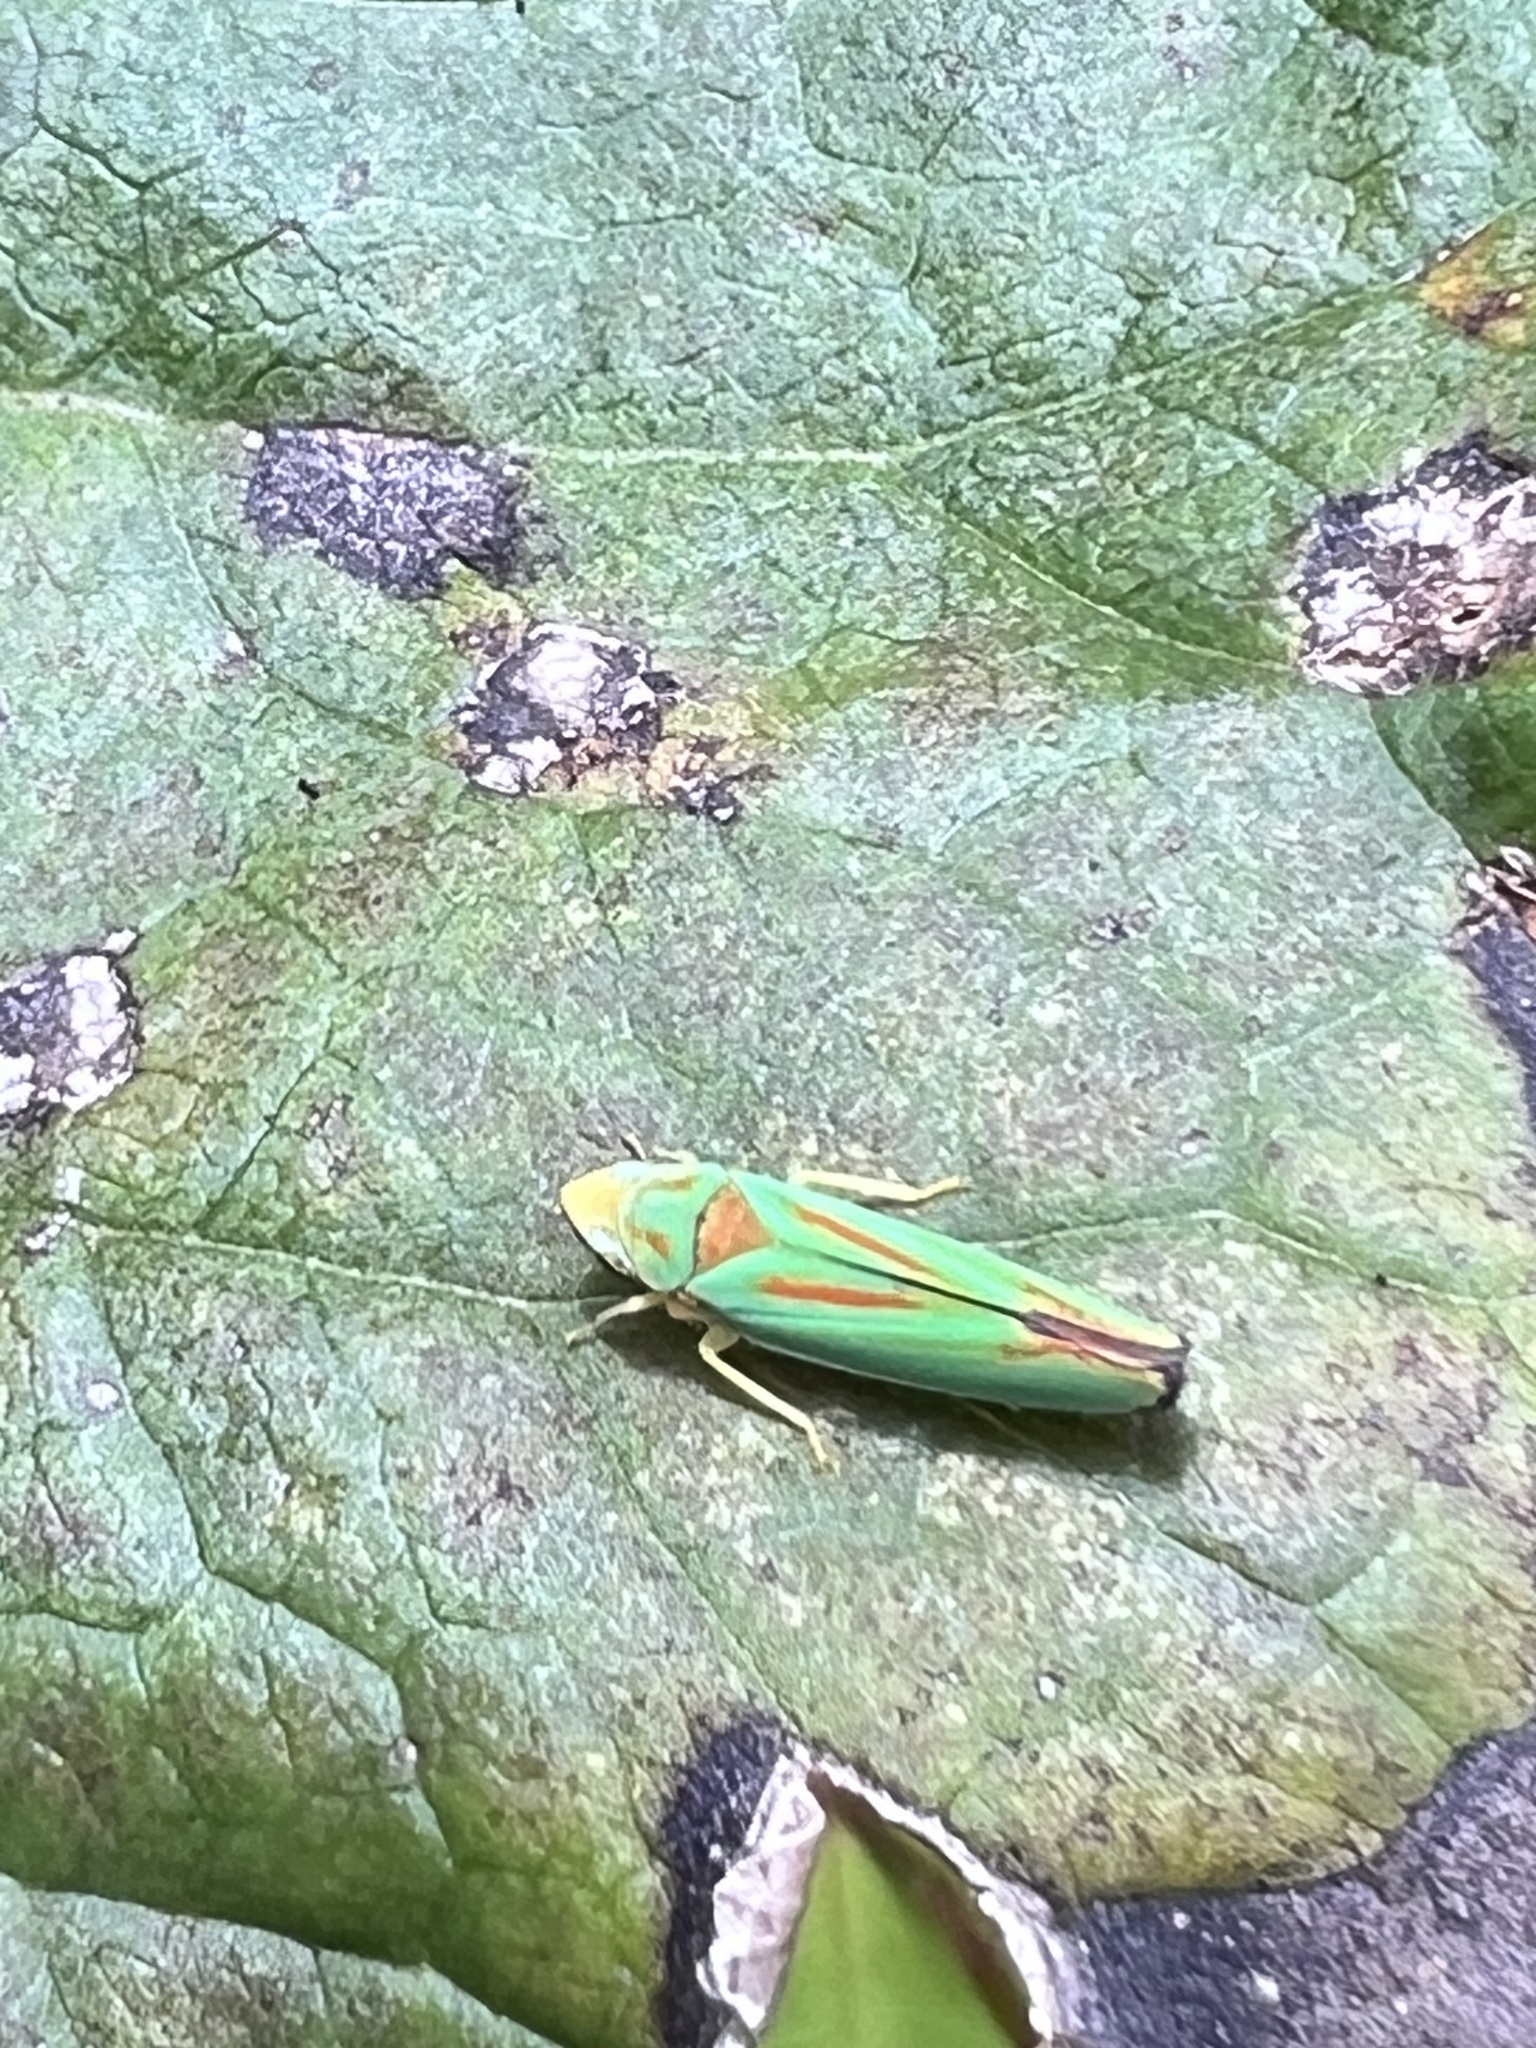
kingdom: Animalia
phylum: Arthropoda
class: Insecta
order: Hemiptera
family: Cicadellidae
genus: Graphocephala
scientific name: Graphocephala fennahi
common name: Rhododendron leafhopper
